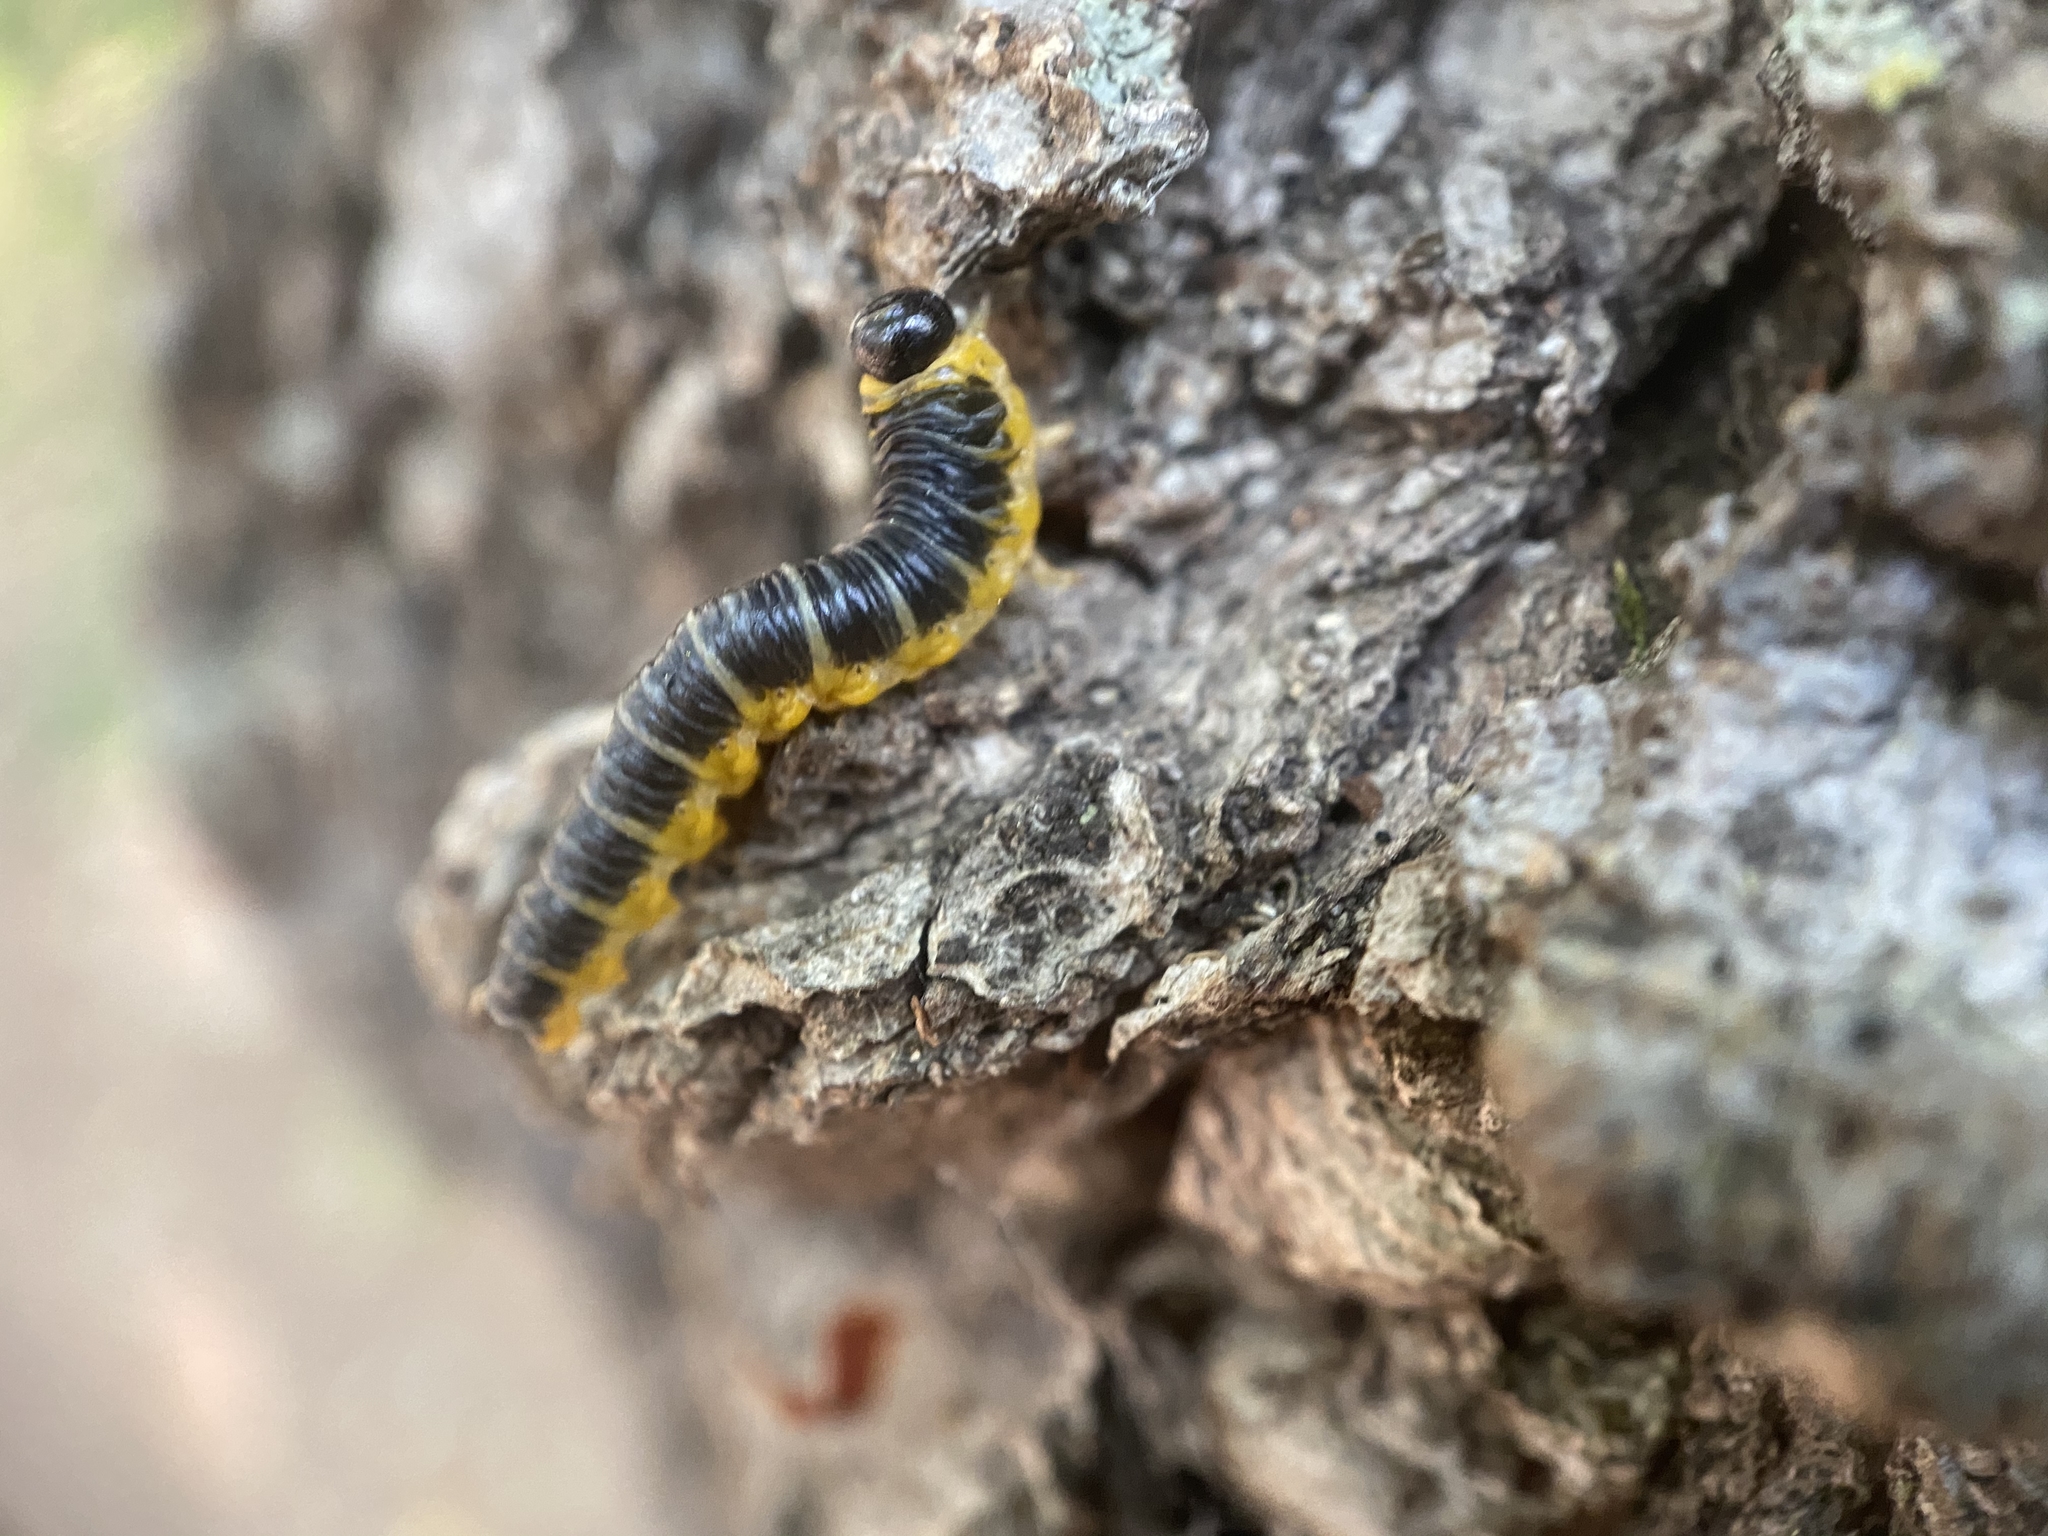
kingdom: Animalia
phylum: Arthropoda
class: Insecta
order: Hymenoptera
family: Tenthredinidae
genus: Macremphytus
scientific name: Macremphytus
